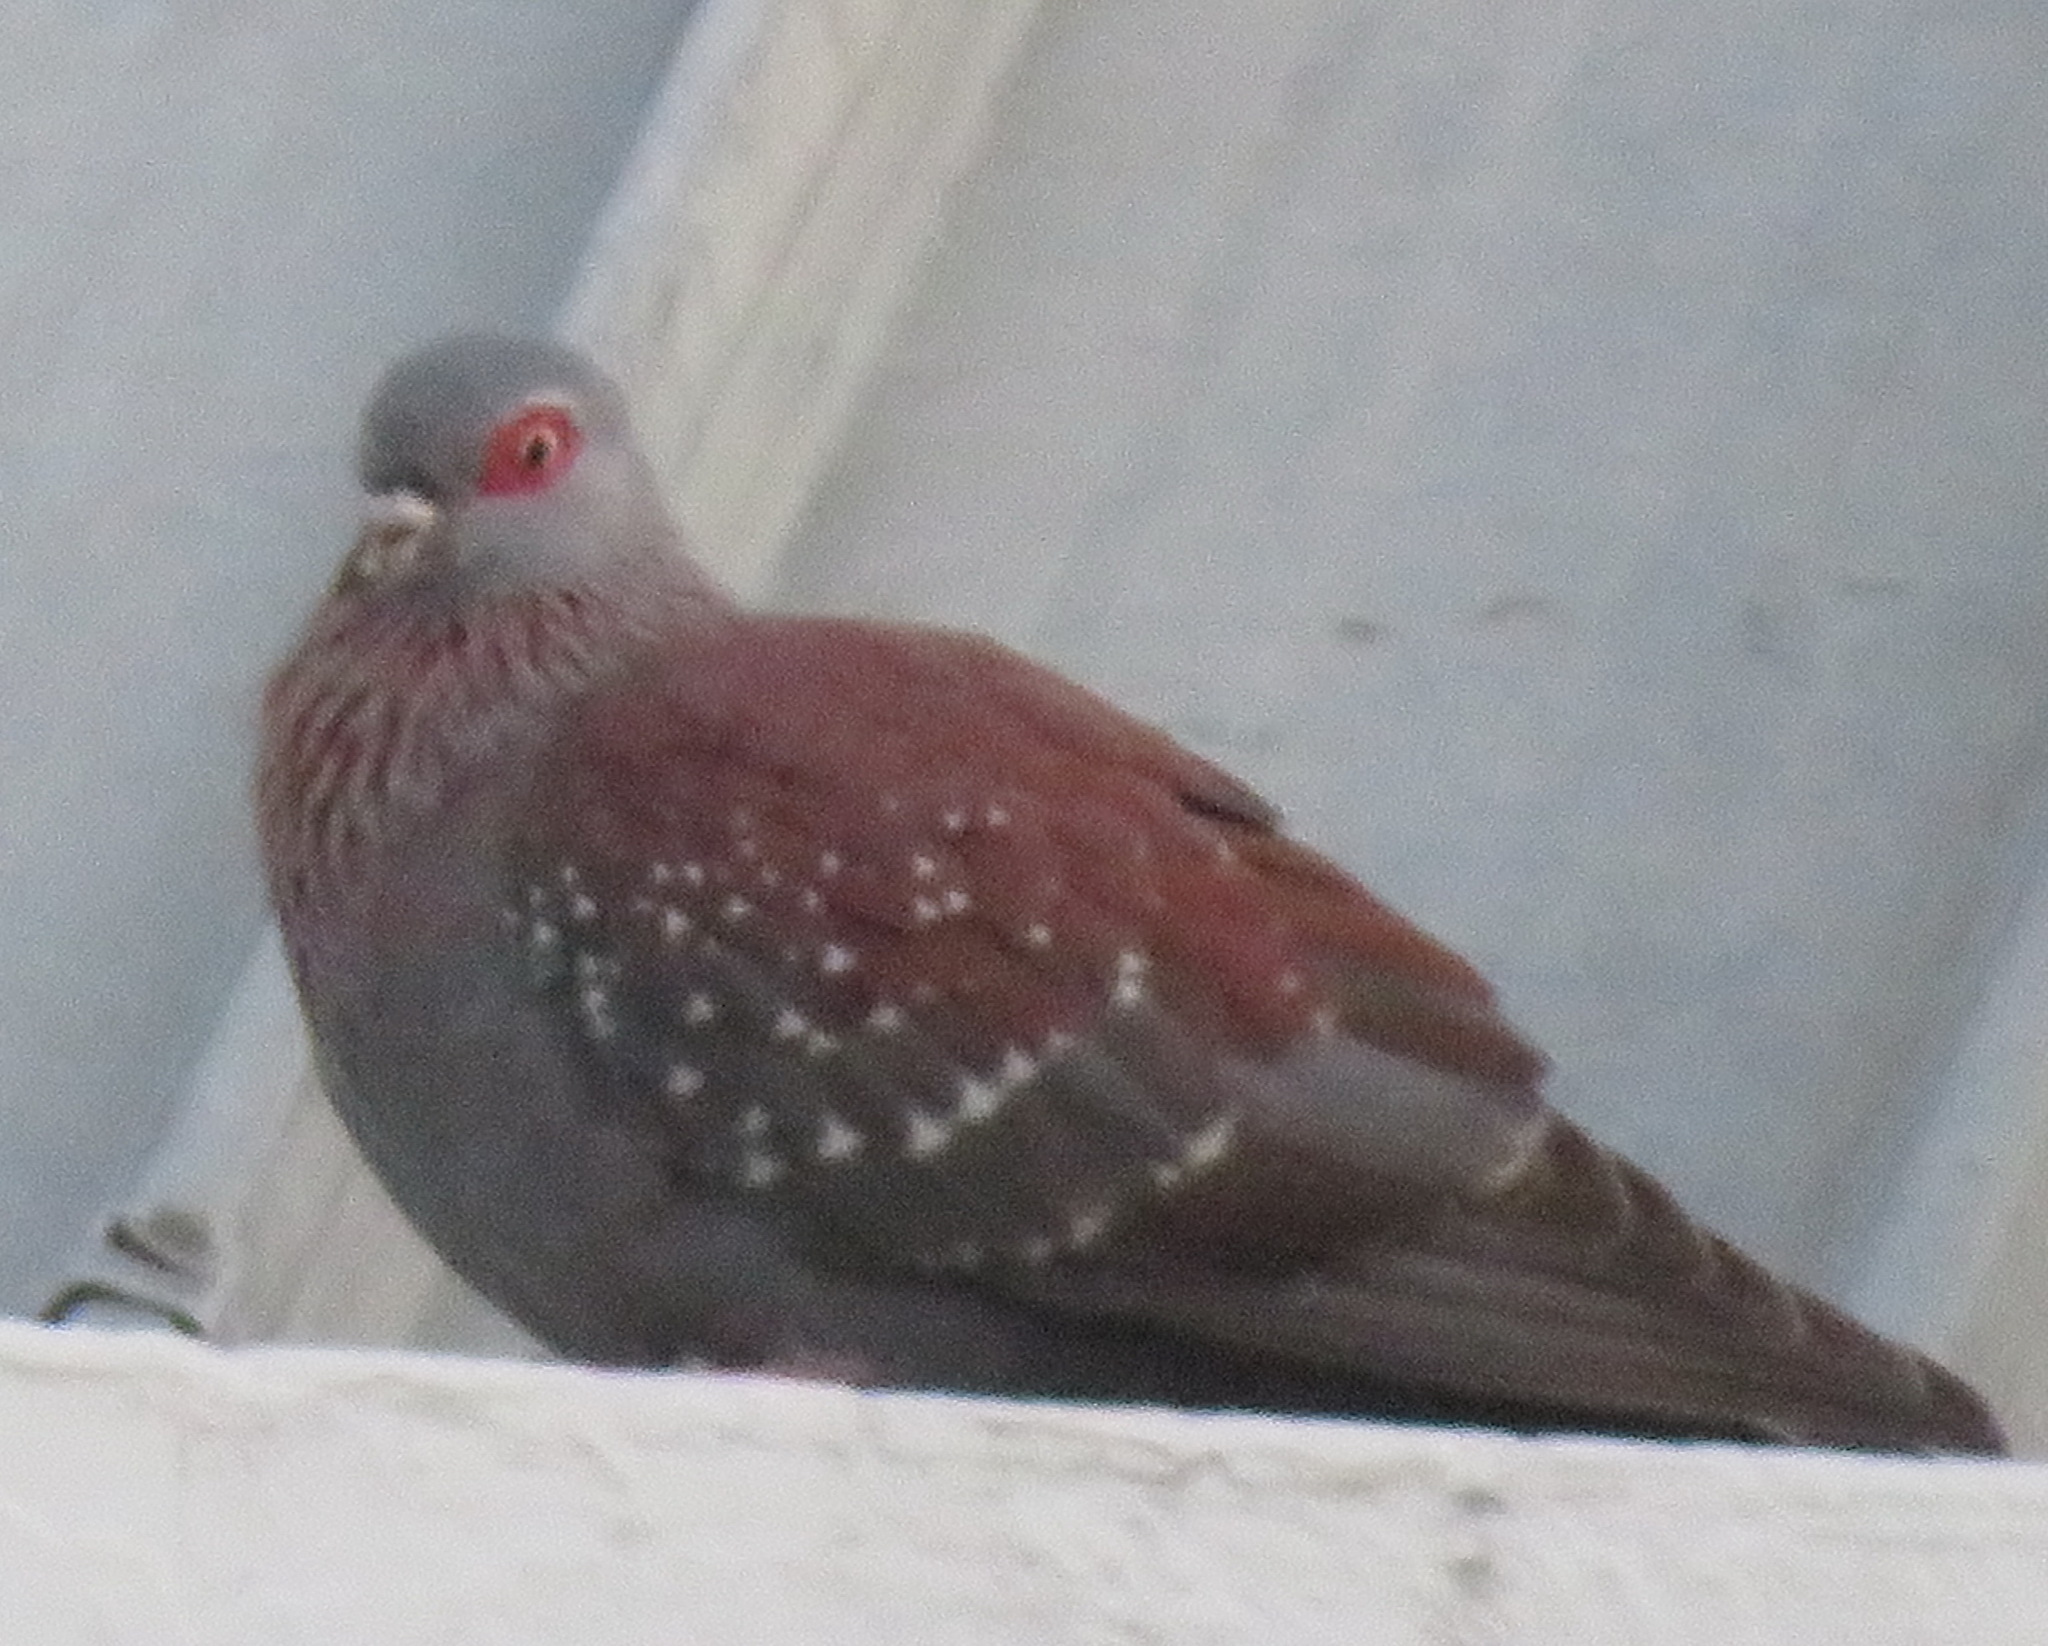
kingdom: Animalia
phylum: Chordata
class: Aves
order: Columbiformes
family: Columbidae
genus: Columba
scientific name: Columba guinea
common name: Speckled pigeon
